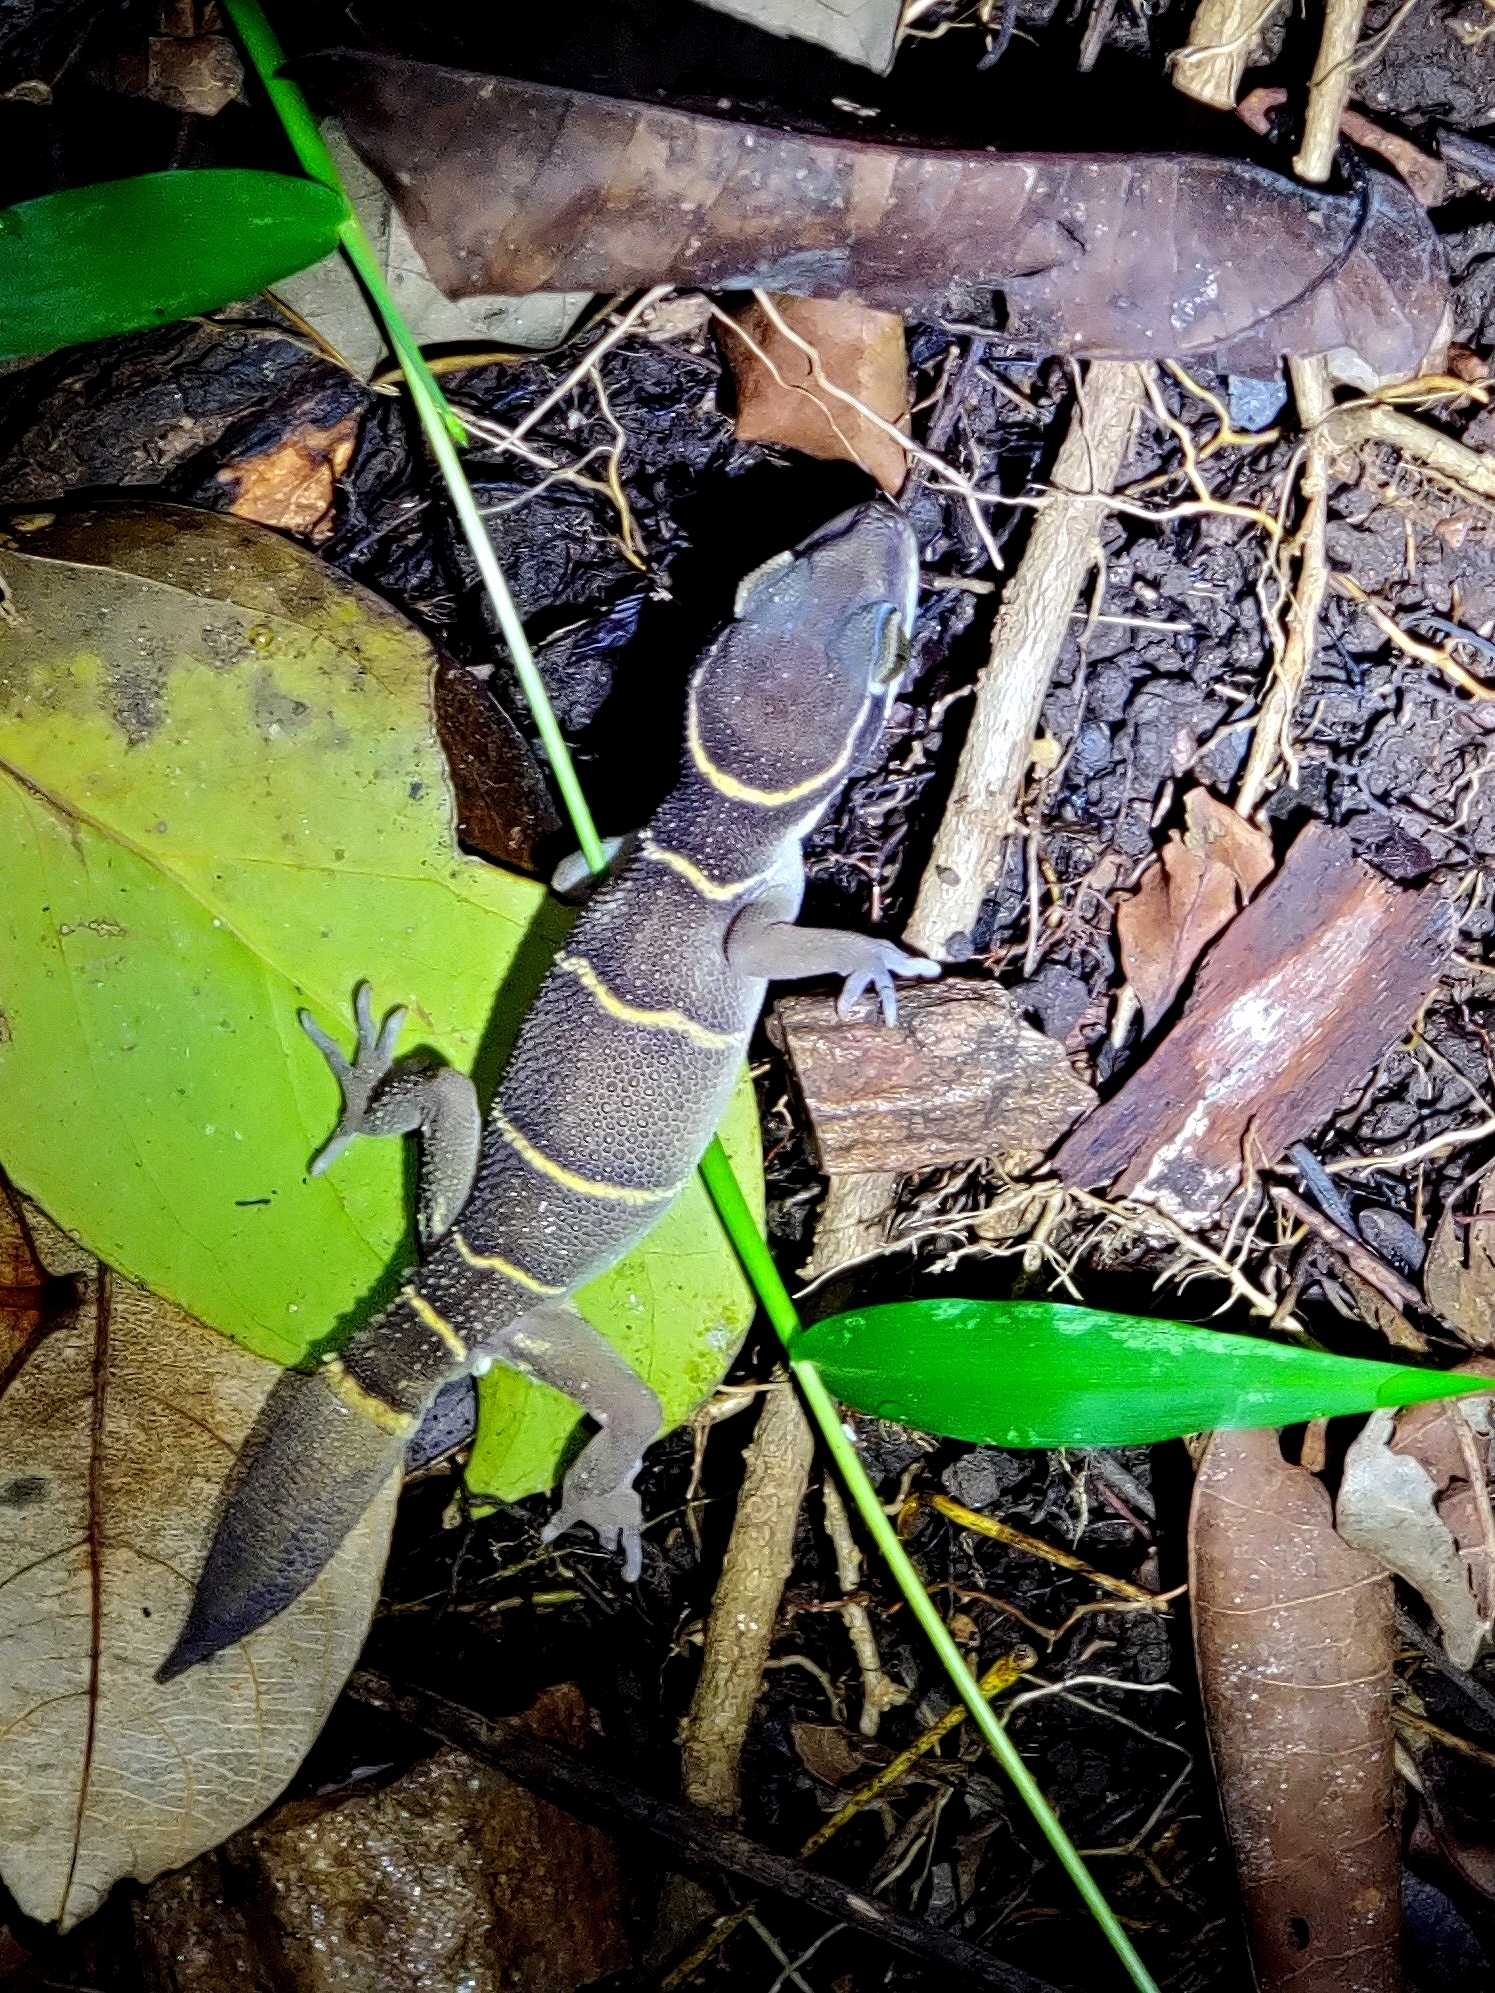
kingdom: Animalia
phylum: Chordata
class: Squamata
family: Gekkonidae
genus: Cyrtodactylus
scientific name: Cyrtodactylus albofasciatus
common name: Boulenger’s indian gecko
